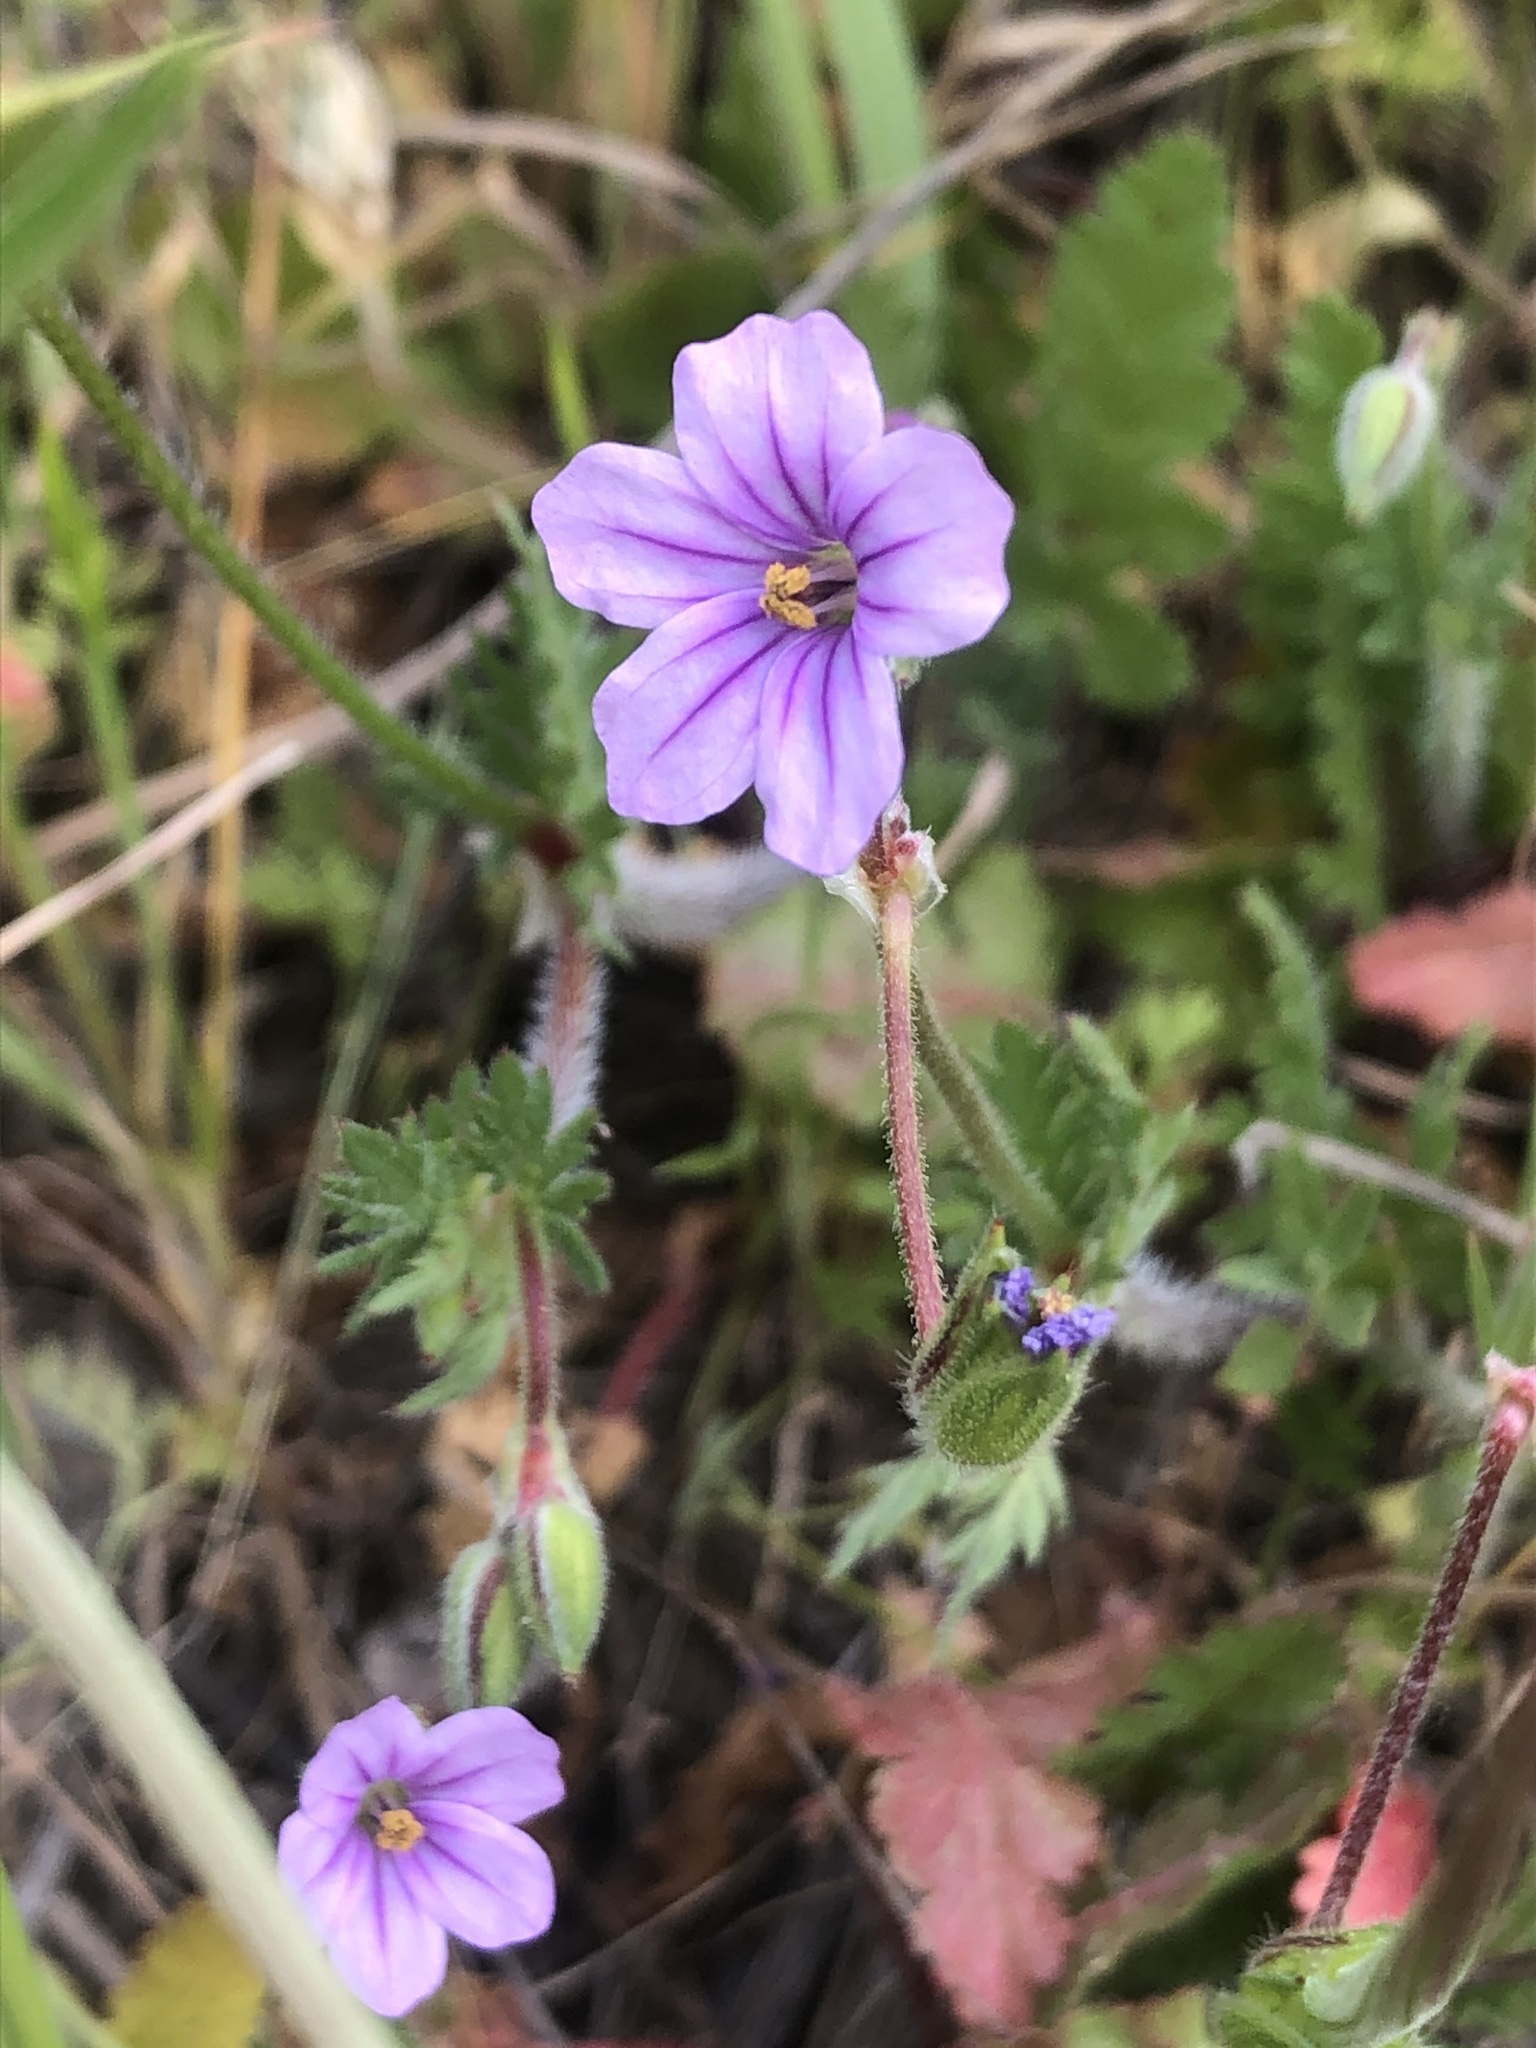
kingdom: Plantae
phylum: Tracheophyta
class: Magnoliopsida
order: Geraniales
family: Geraniaceae
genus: Erodium
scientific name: Erodium botrys
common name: Mediterranean stork's-bill
